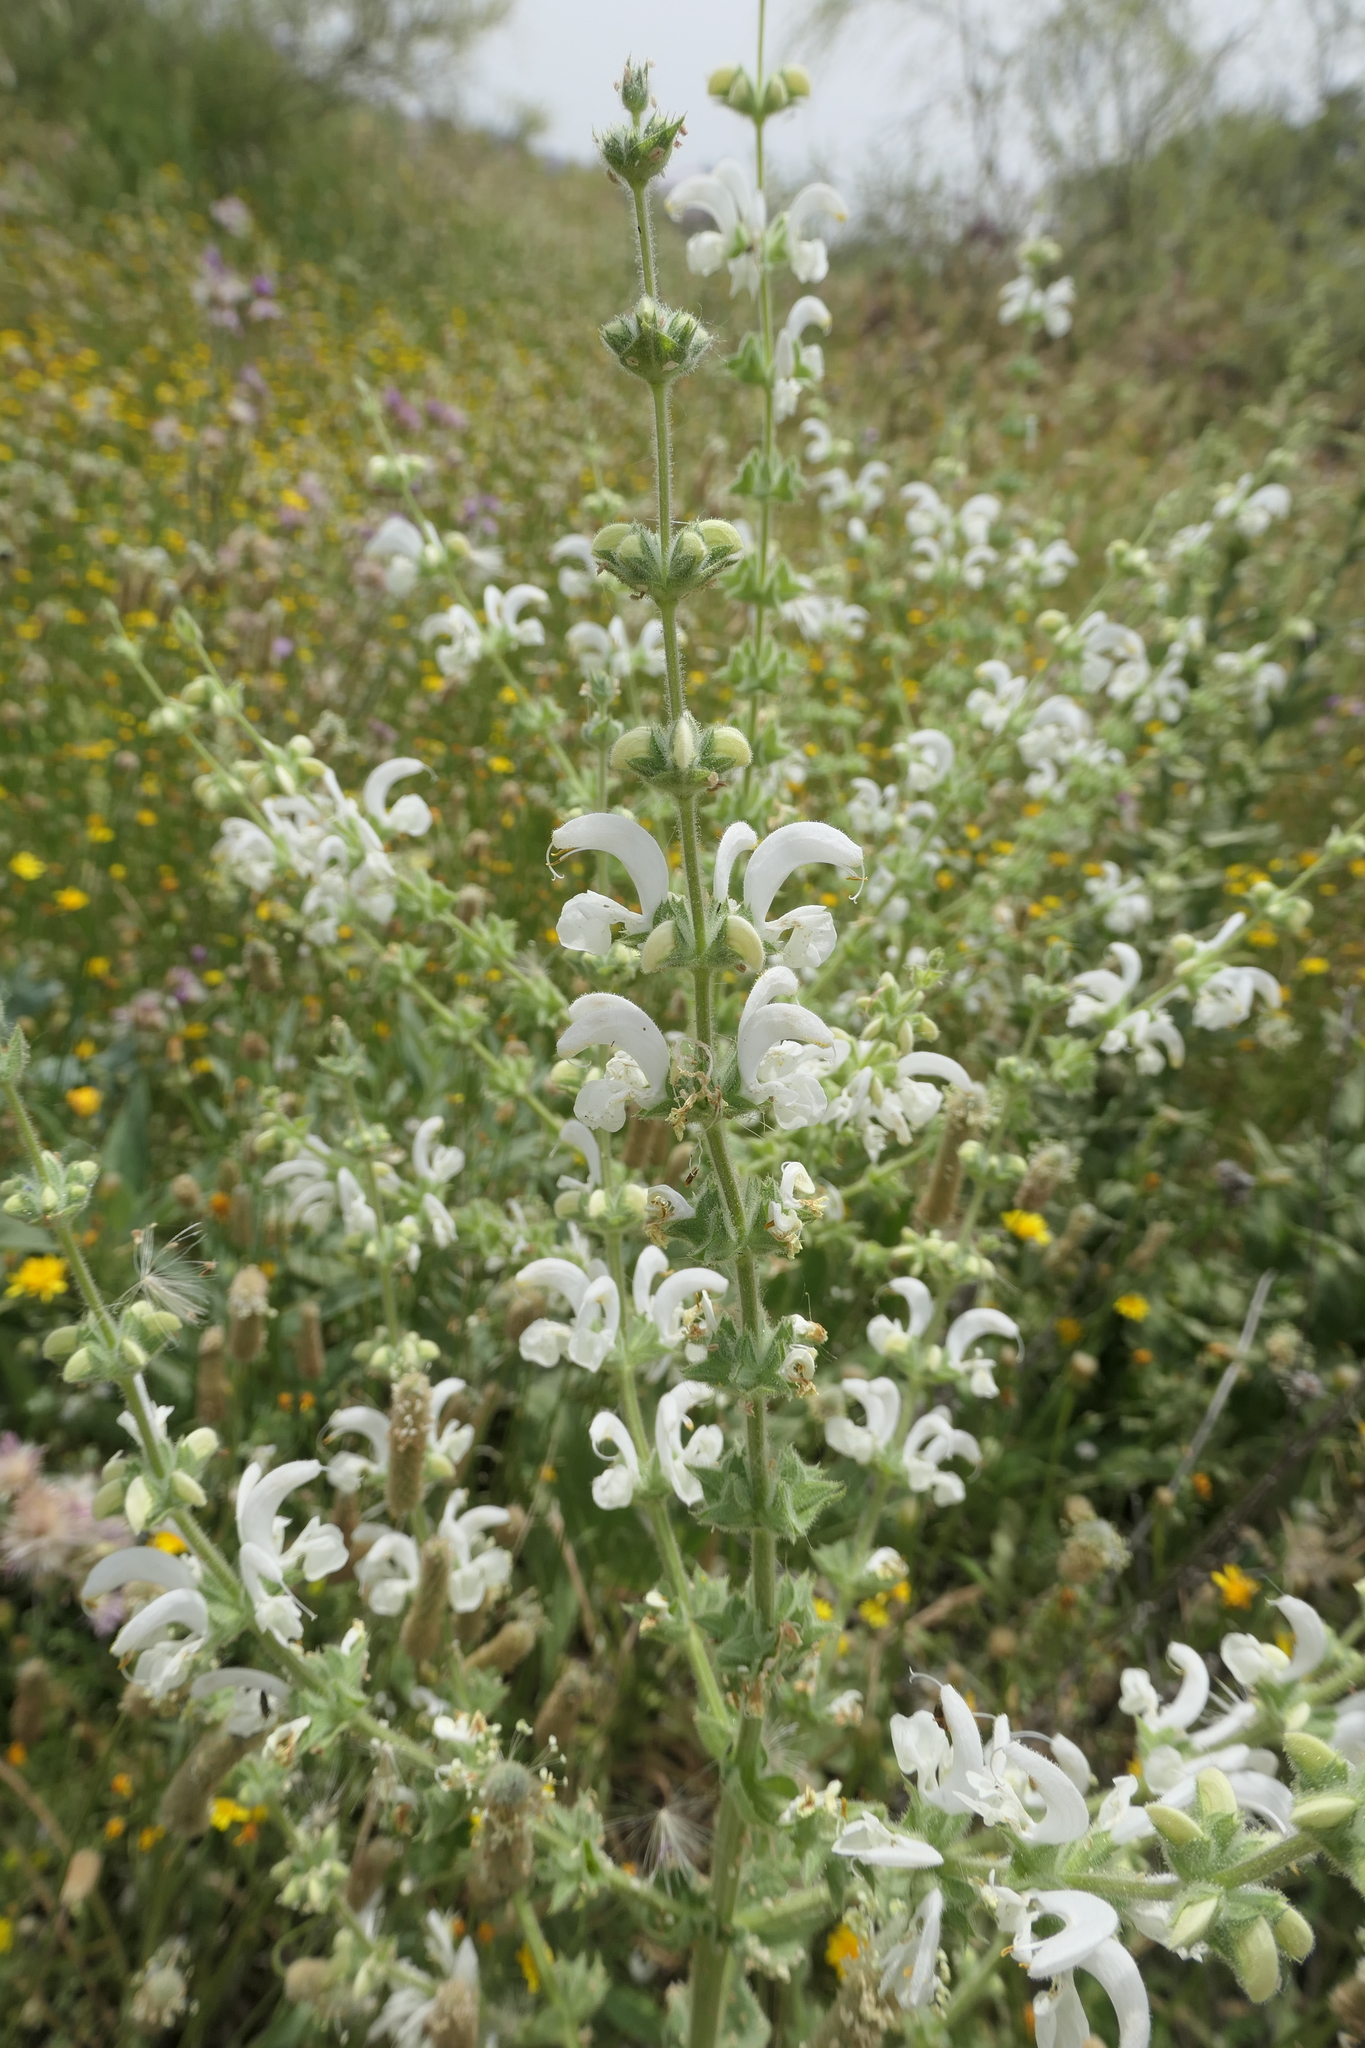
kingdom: Plantae
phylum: Tracheophyta
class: Magnoliopsida
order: Lamiales
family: Lamiaceae
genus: Salvia
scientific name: Salvia argentea
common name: Silver sage
